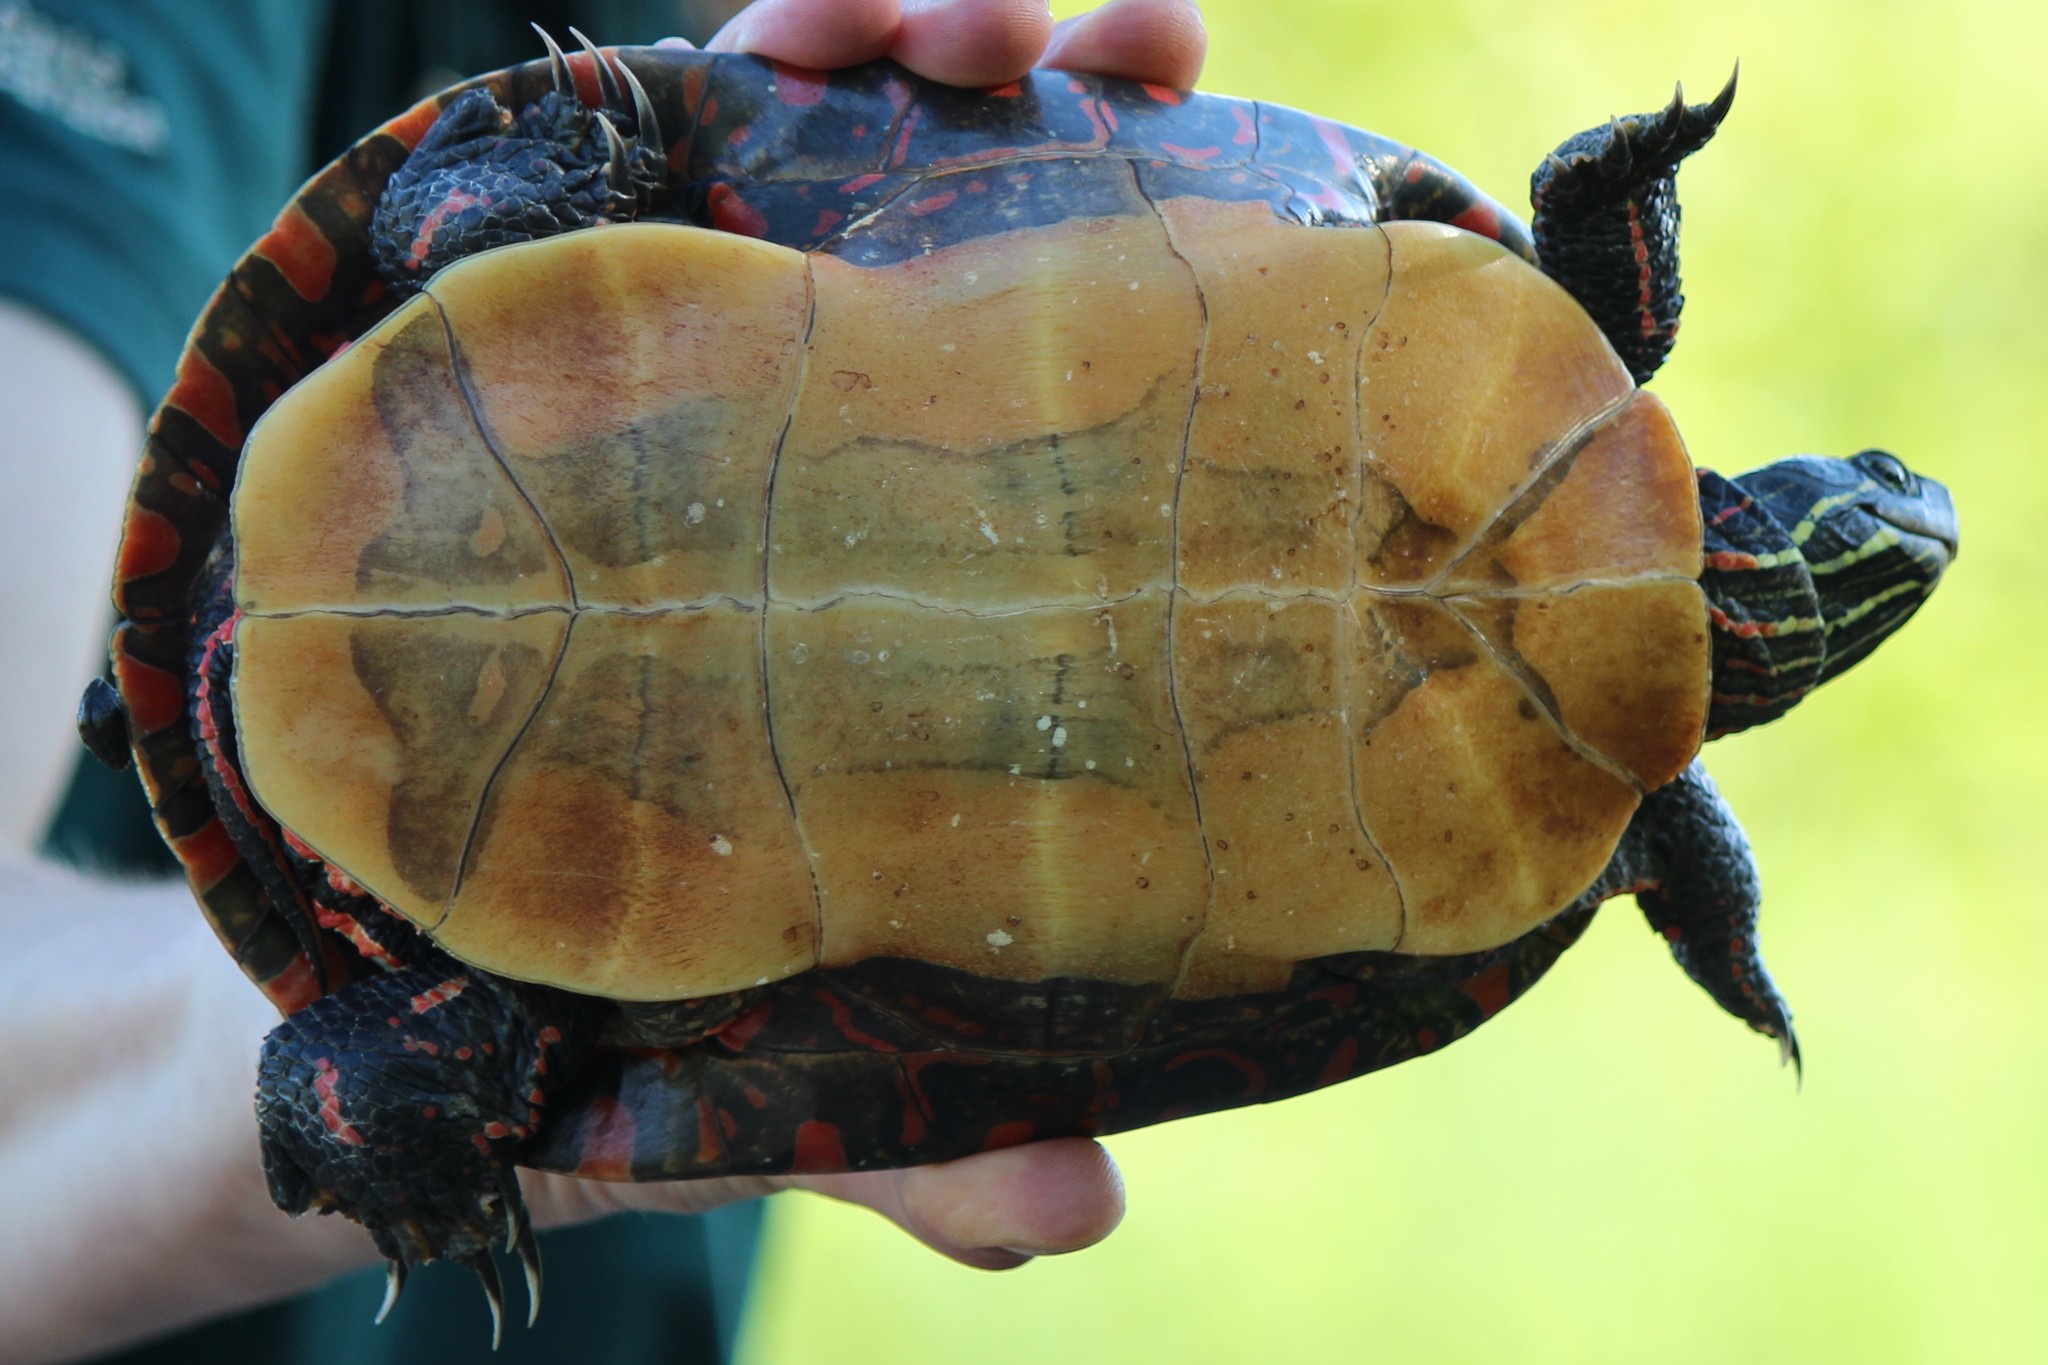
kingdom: Animalia
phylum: Chordata
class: Testudines
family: Emydidae
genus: Chrysemys
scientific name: Chrysemys picta
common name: Painted turtle
